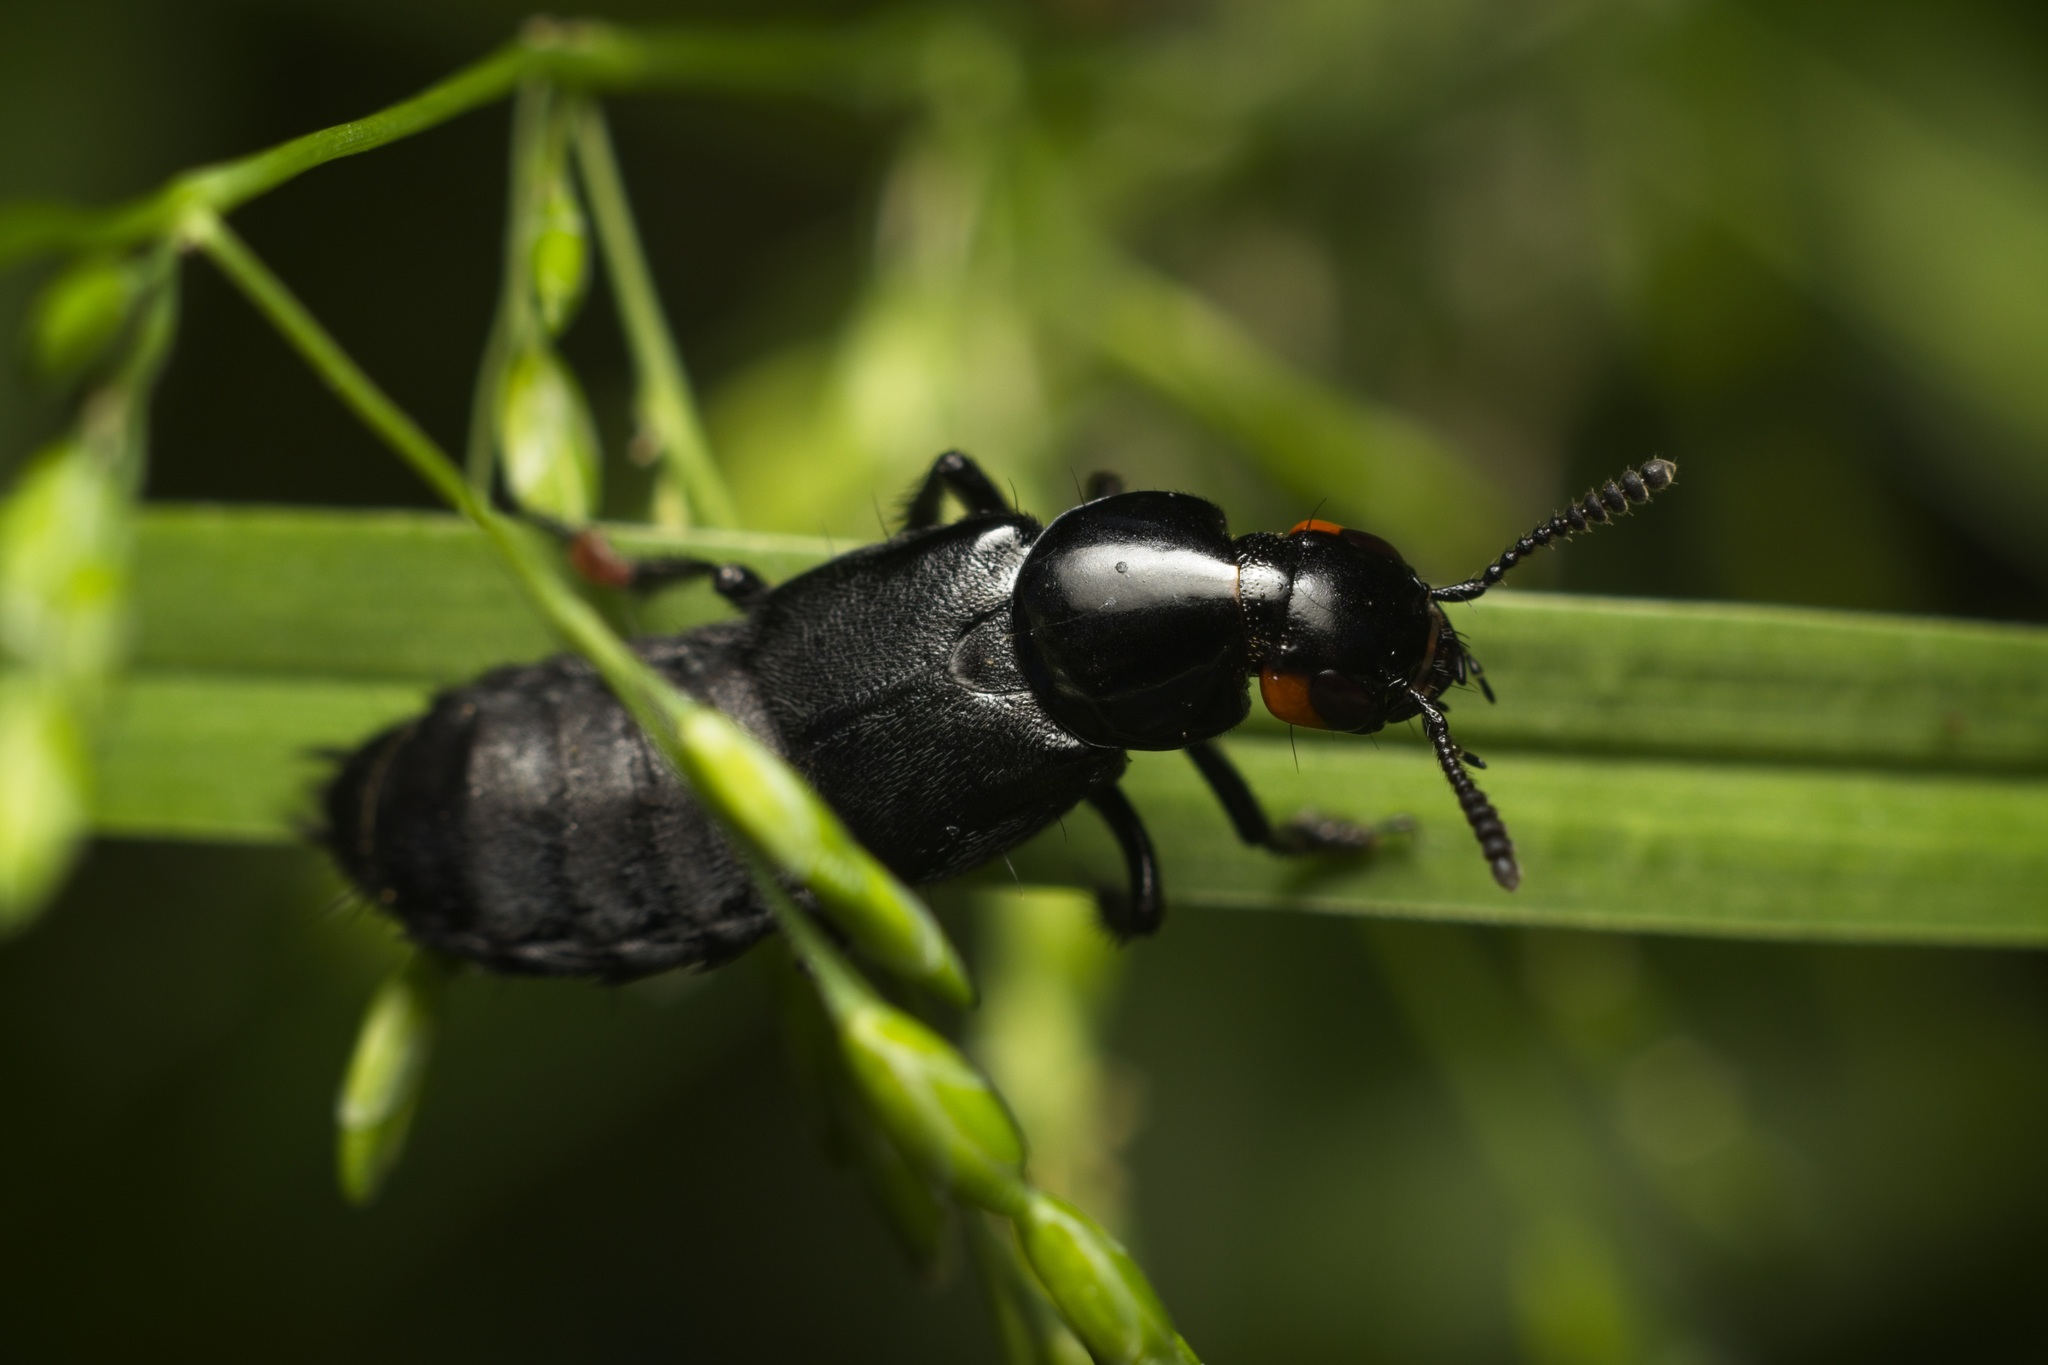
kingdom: Animalia
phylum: Arthropoda
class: Insecta
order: Coleoptera
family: Staphylinidae
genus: Creophilus
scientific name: Creophilus oculatus
